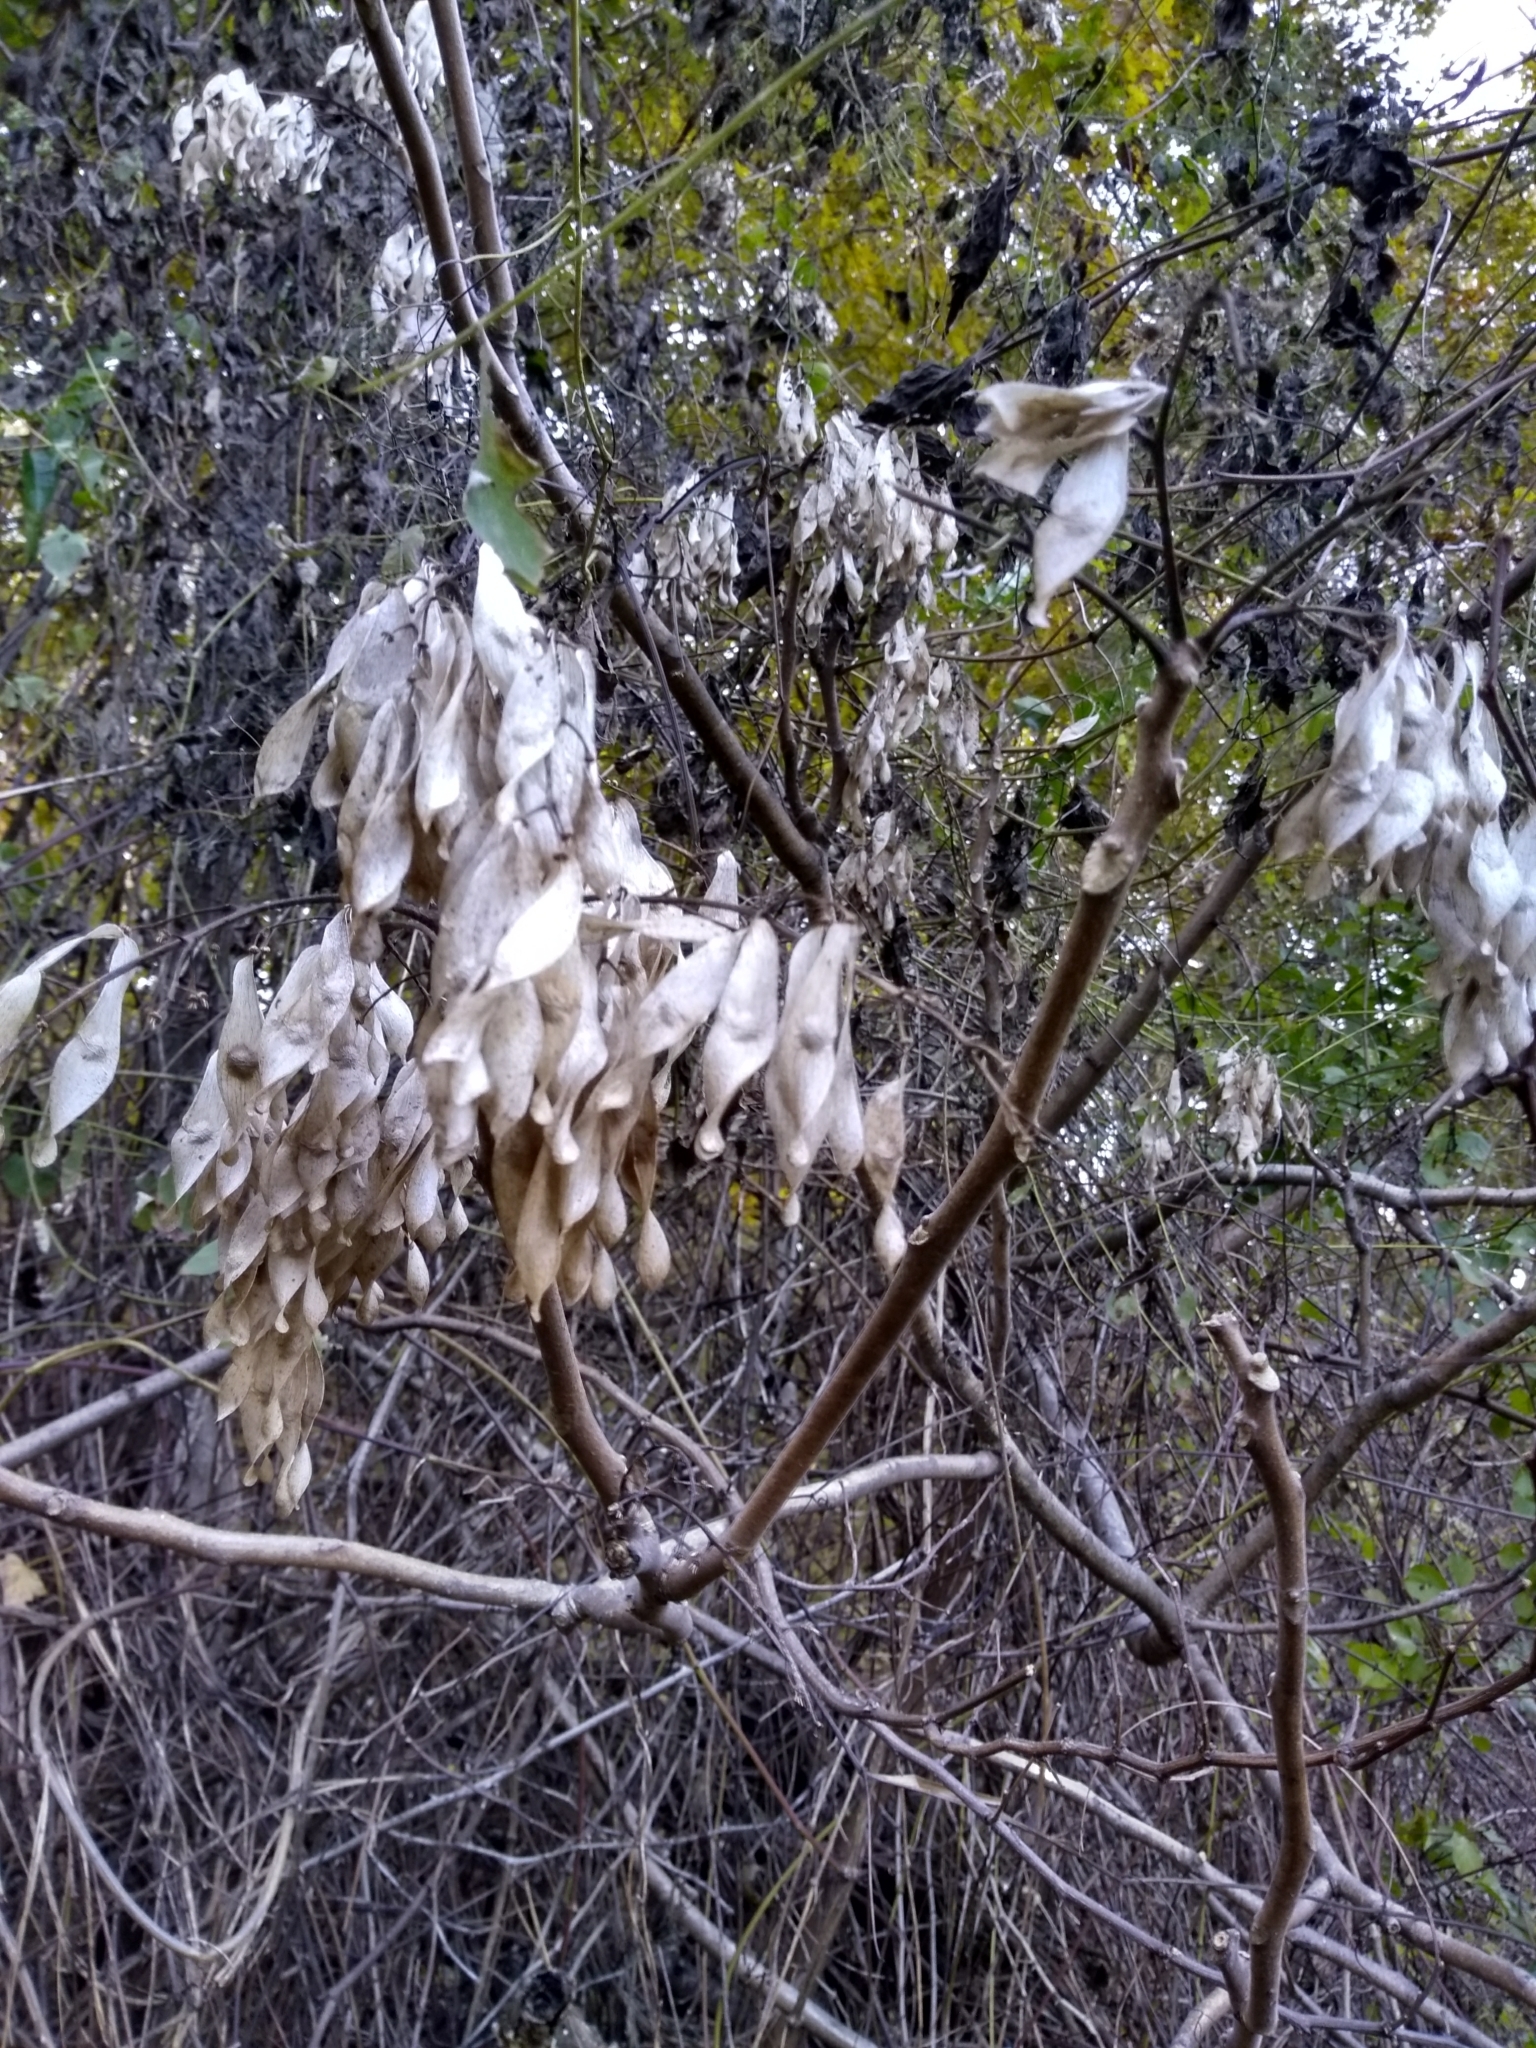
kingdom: Plantae
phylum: Tracheophyta
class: Magnoliopsida
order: Sapindales
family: Simaroubaceae
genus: Ailanthus
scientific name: Ailanthus altissima
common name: Tree-of-heaven
